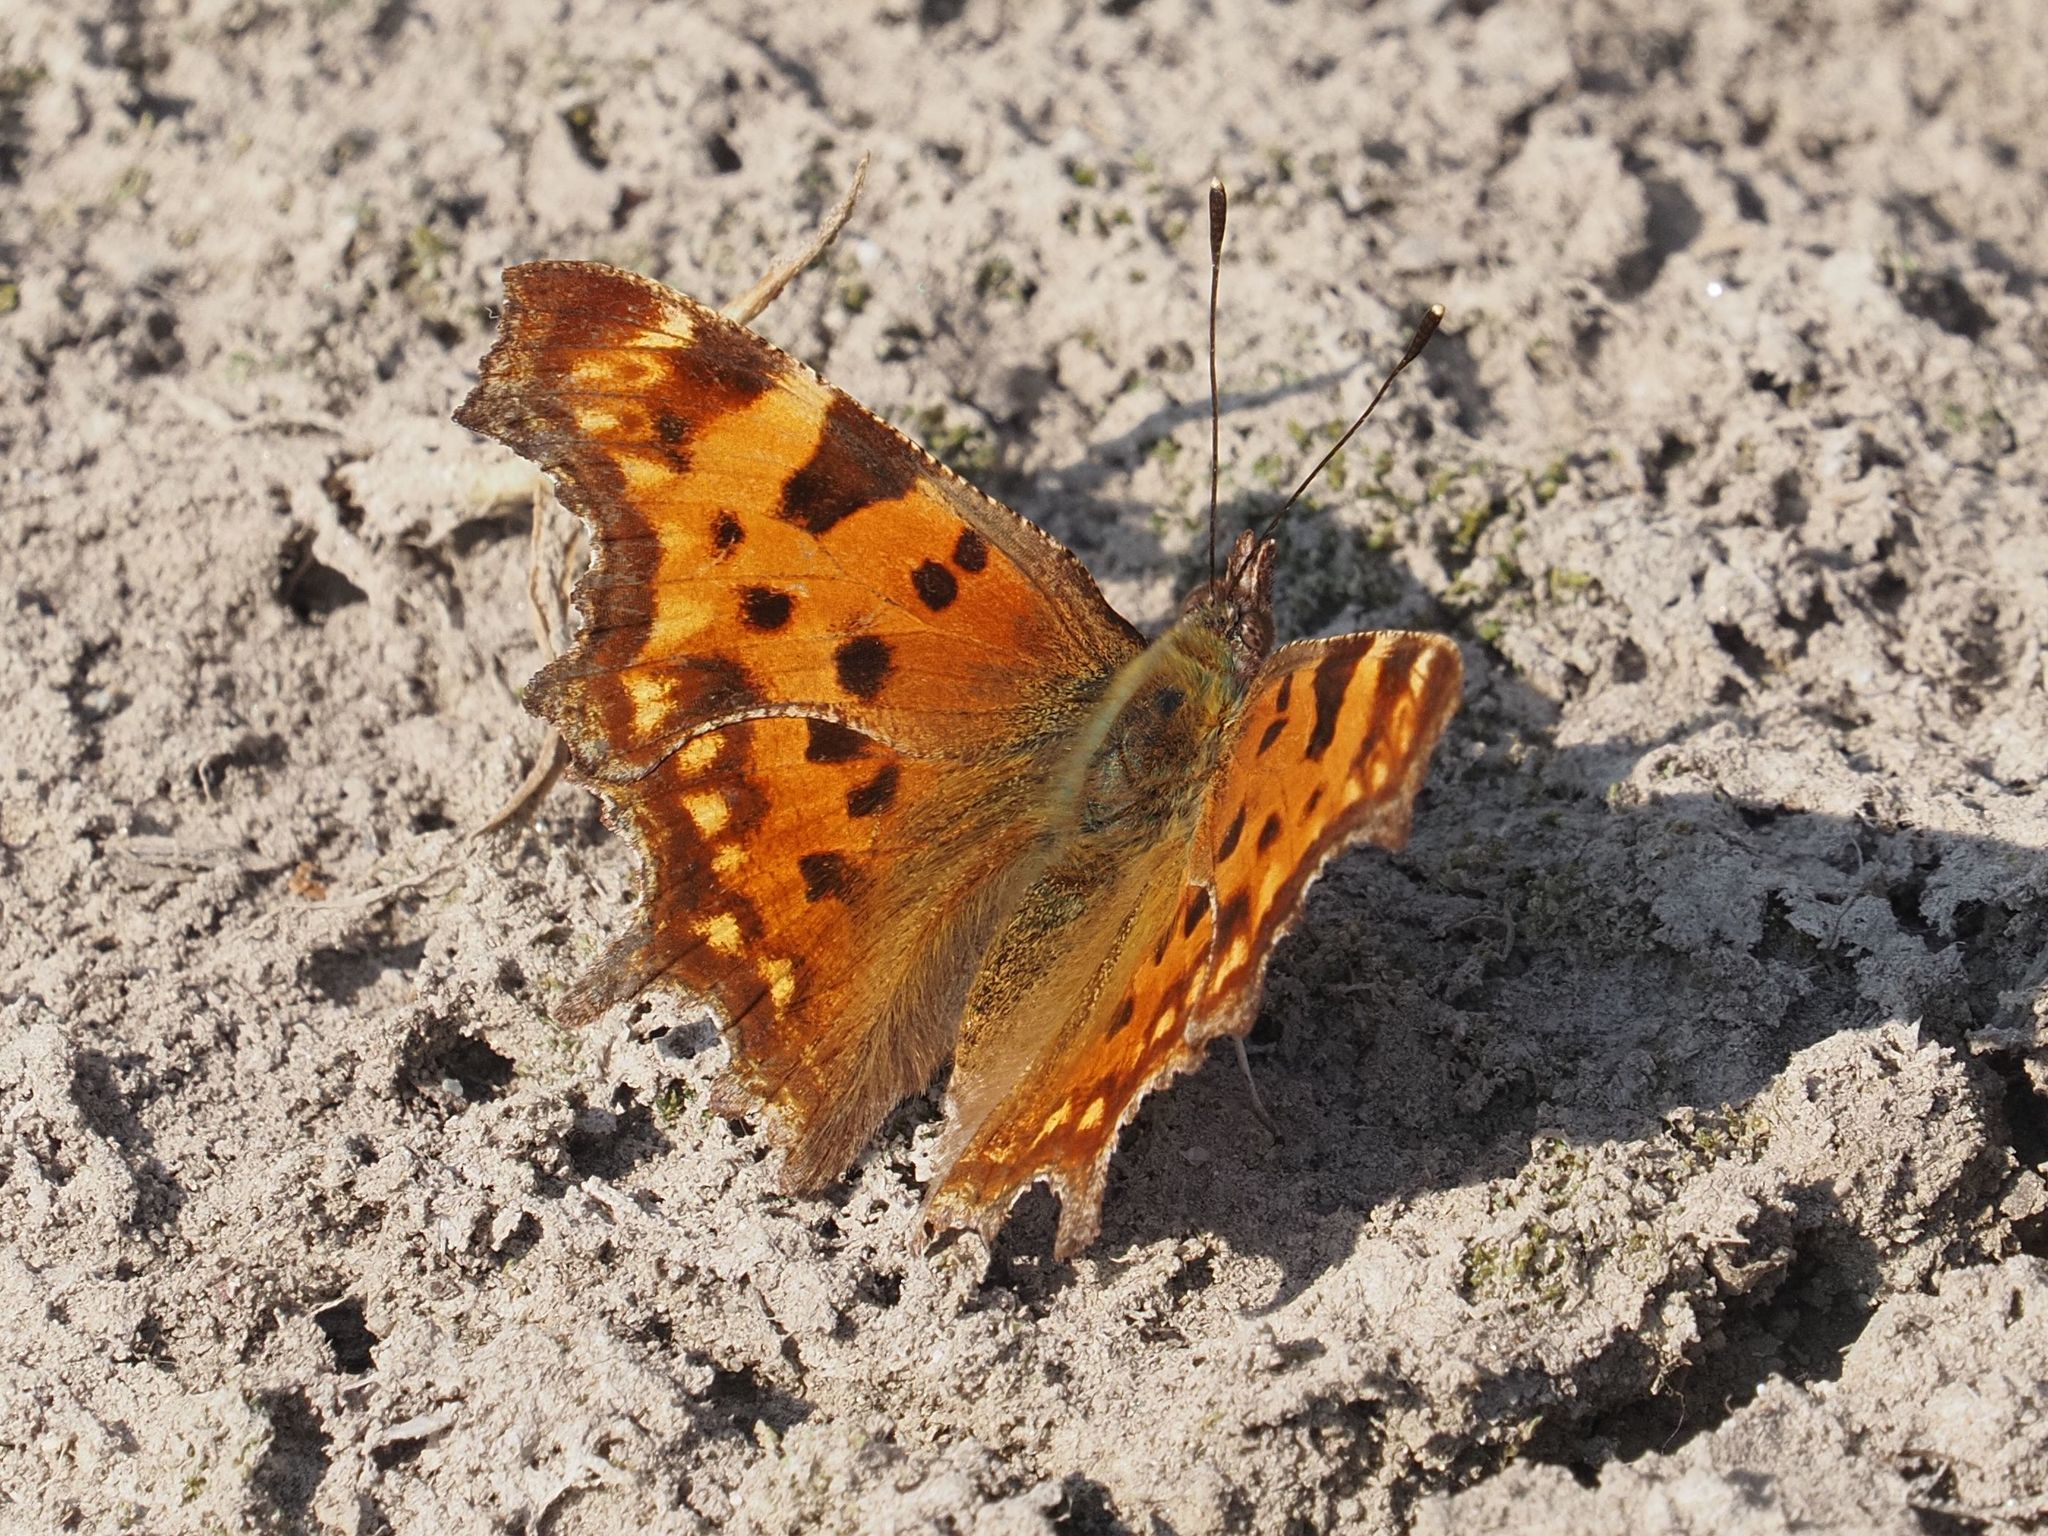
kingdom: Animalia
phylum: Arthropoda
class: Insecta
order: Lepidoptera
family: Nymphalidae
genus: Polygonia
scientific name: Polygonia c-album
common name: Comma
